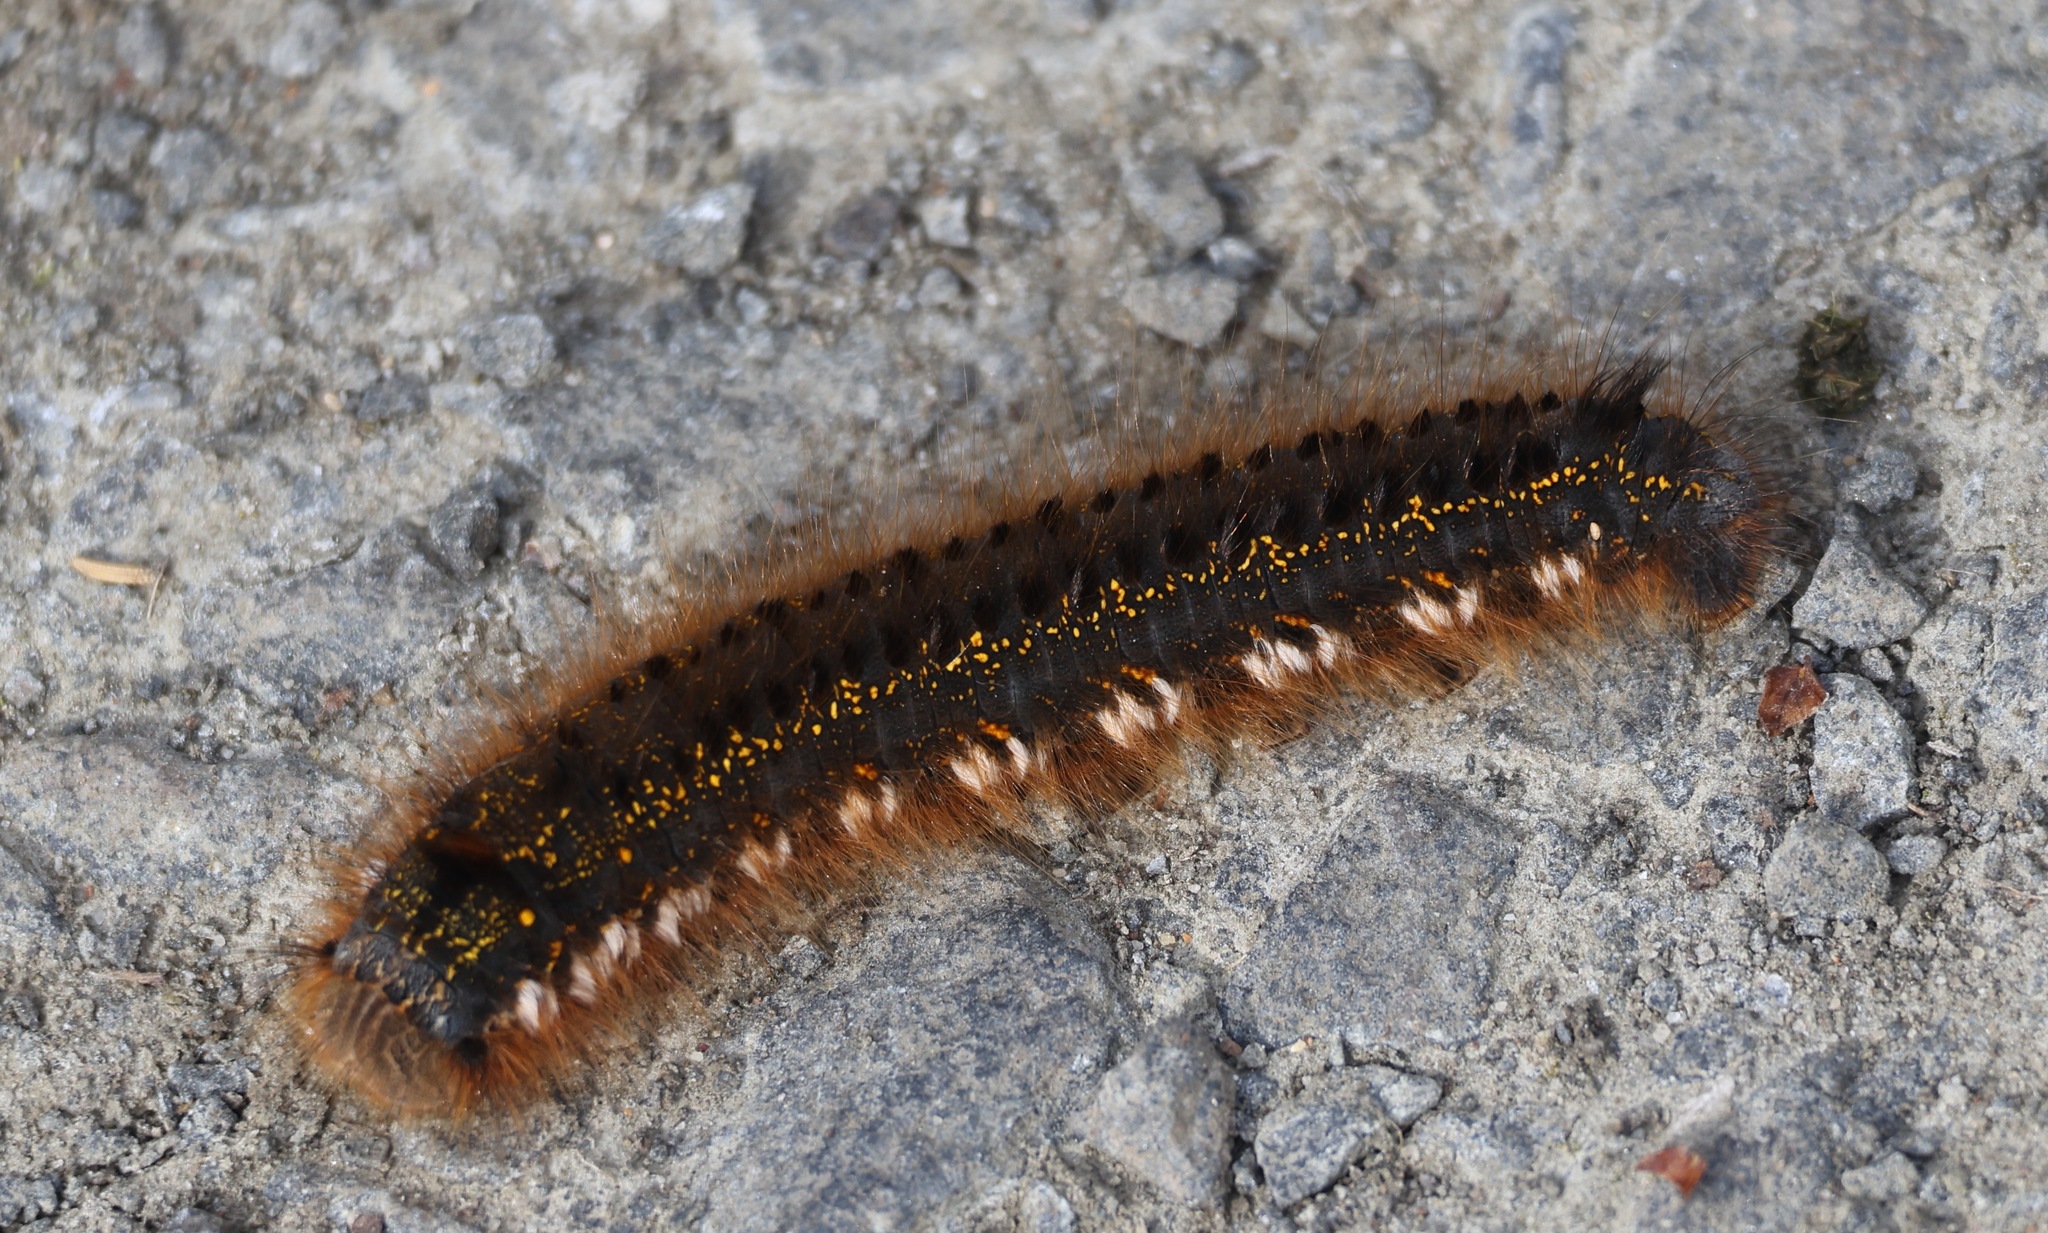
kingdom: Animalia
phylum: Arthropoda
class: Insecta
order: Lepidoptera
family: Lasiocampidae
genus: Euthrix
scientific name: Euthrix potatoria
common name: Drinker
